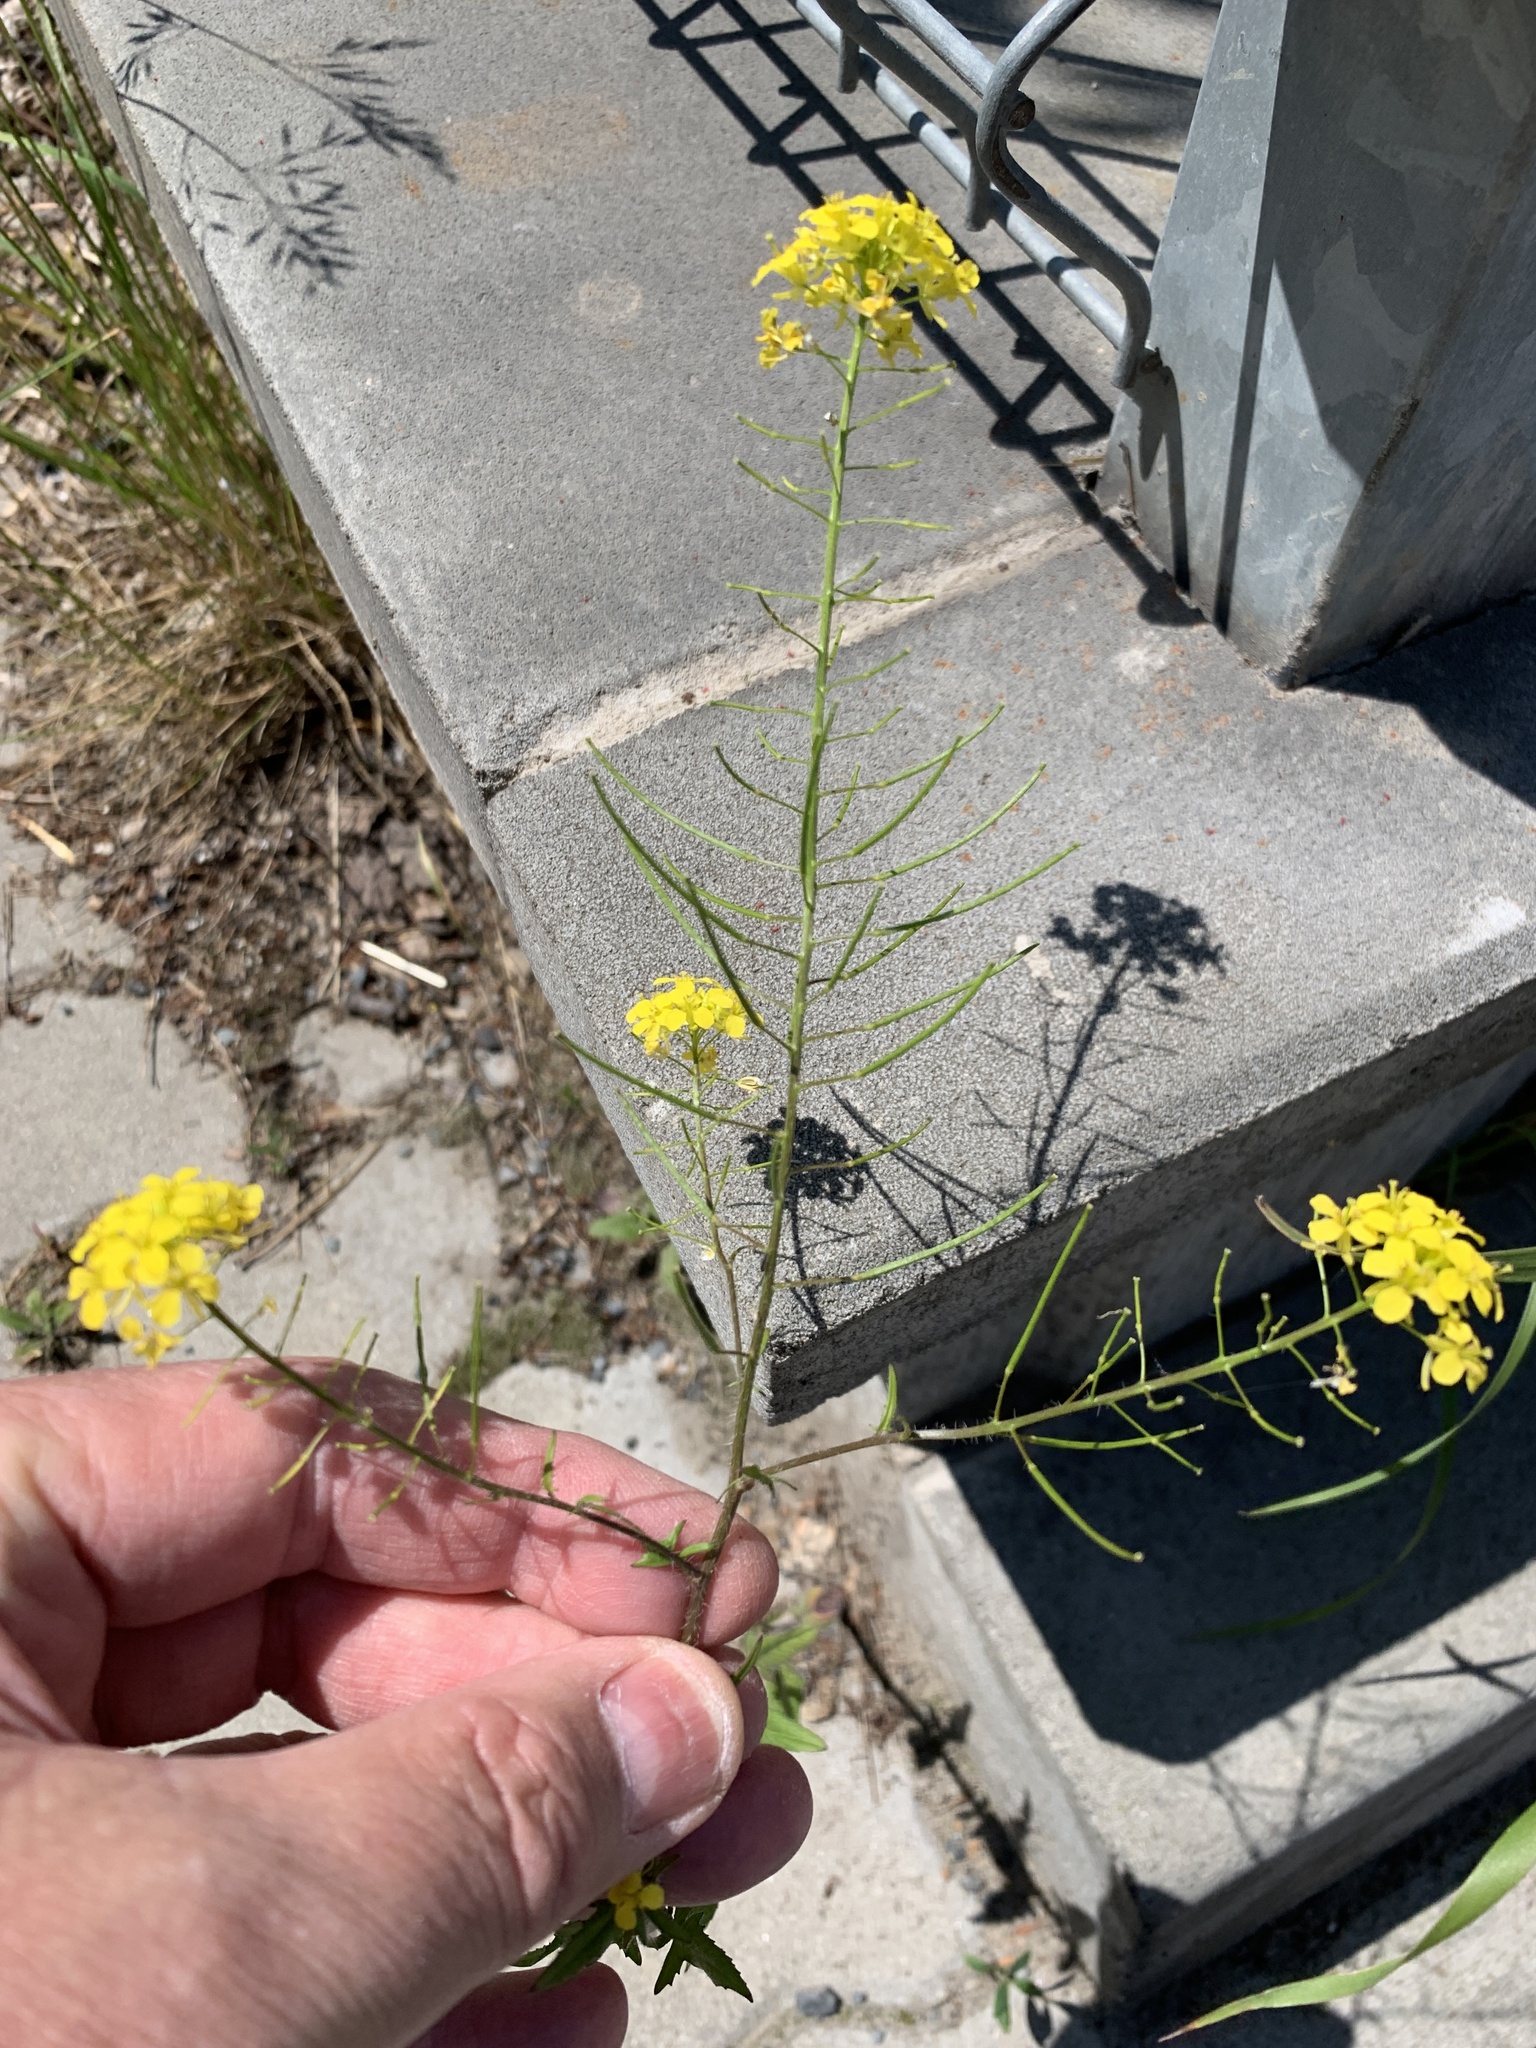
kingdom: Plantae
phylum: Tracheophyta
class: Magnoliopsida
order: Brassicales
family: Brassicaceae
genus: Sisymbrium
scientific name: Sisymbrium loeselii
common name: False london-rocket
